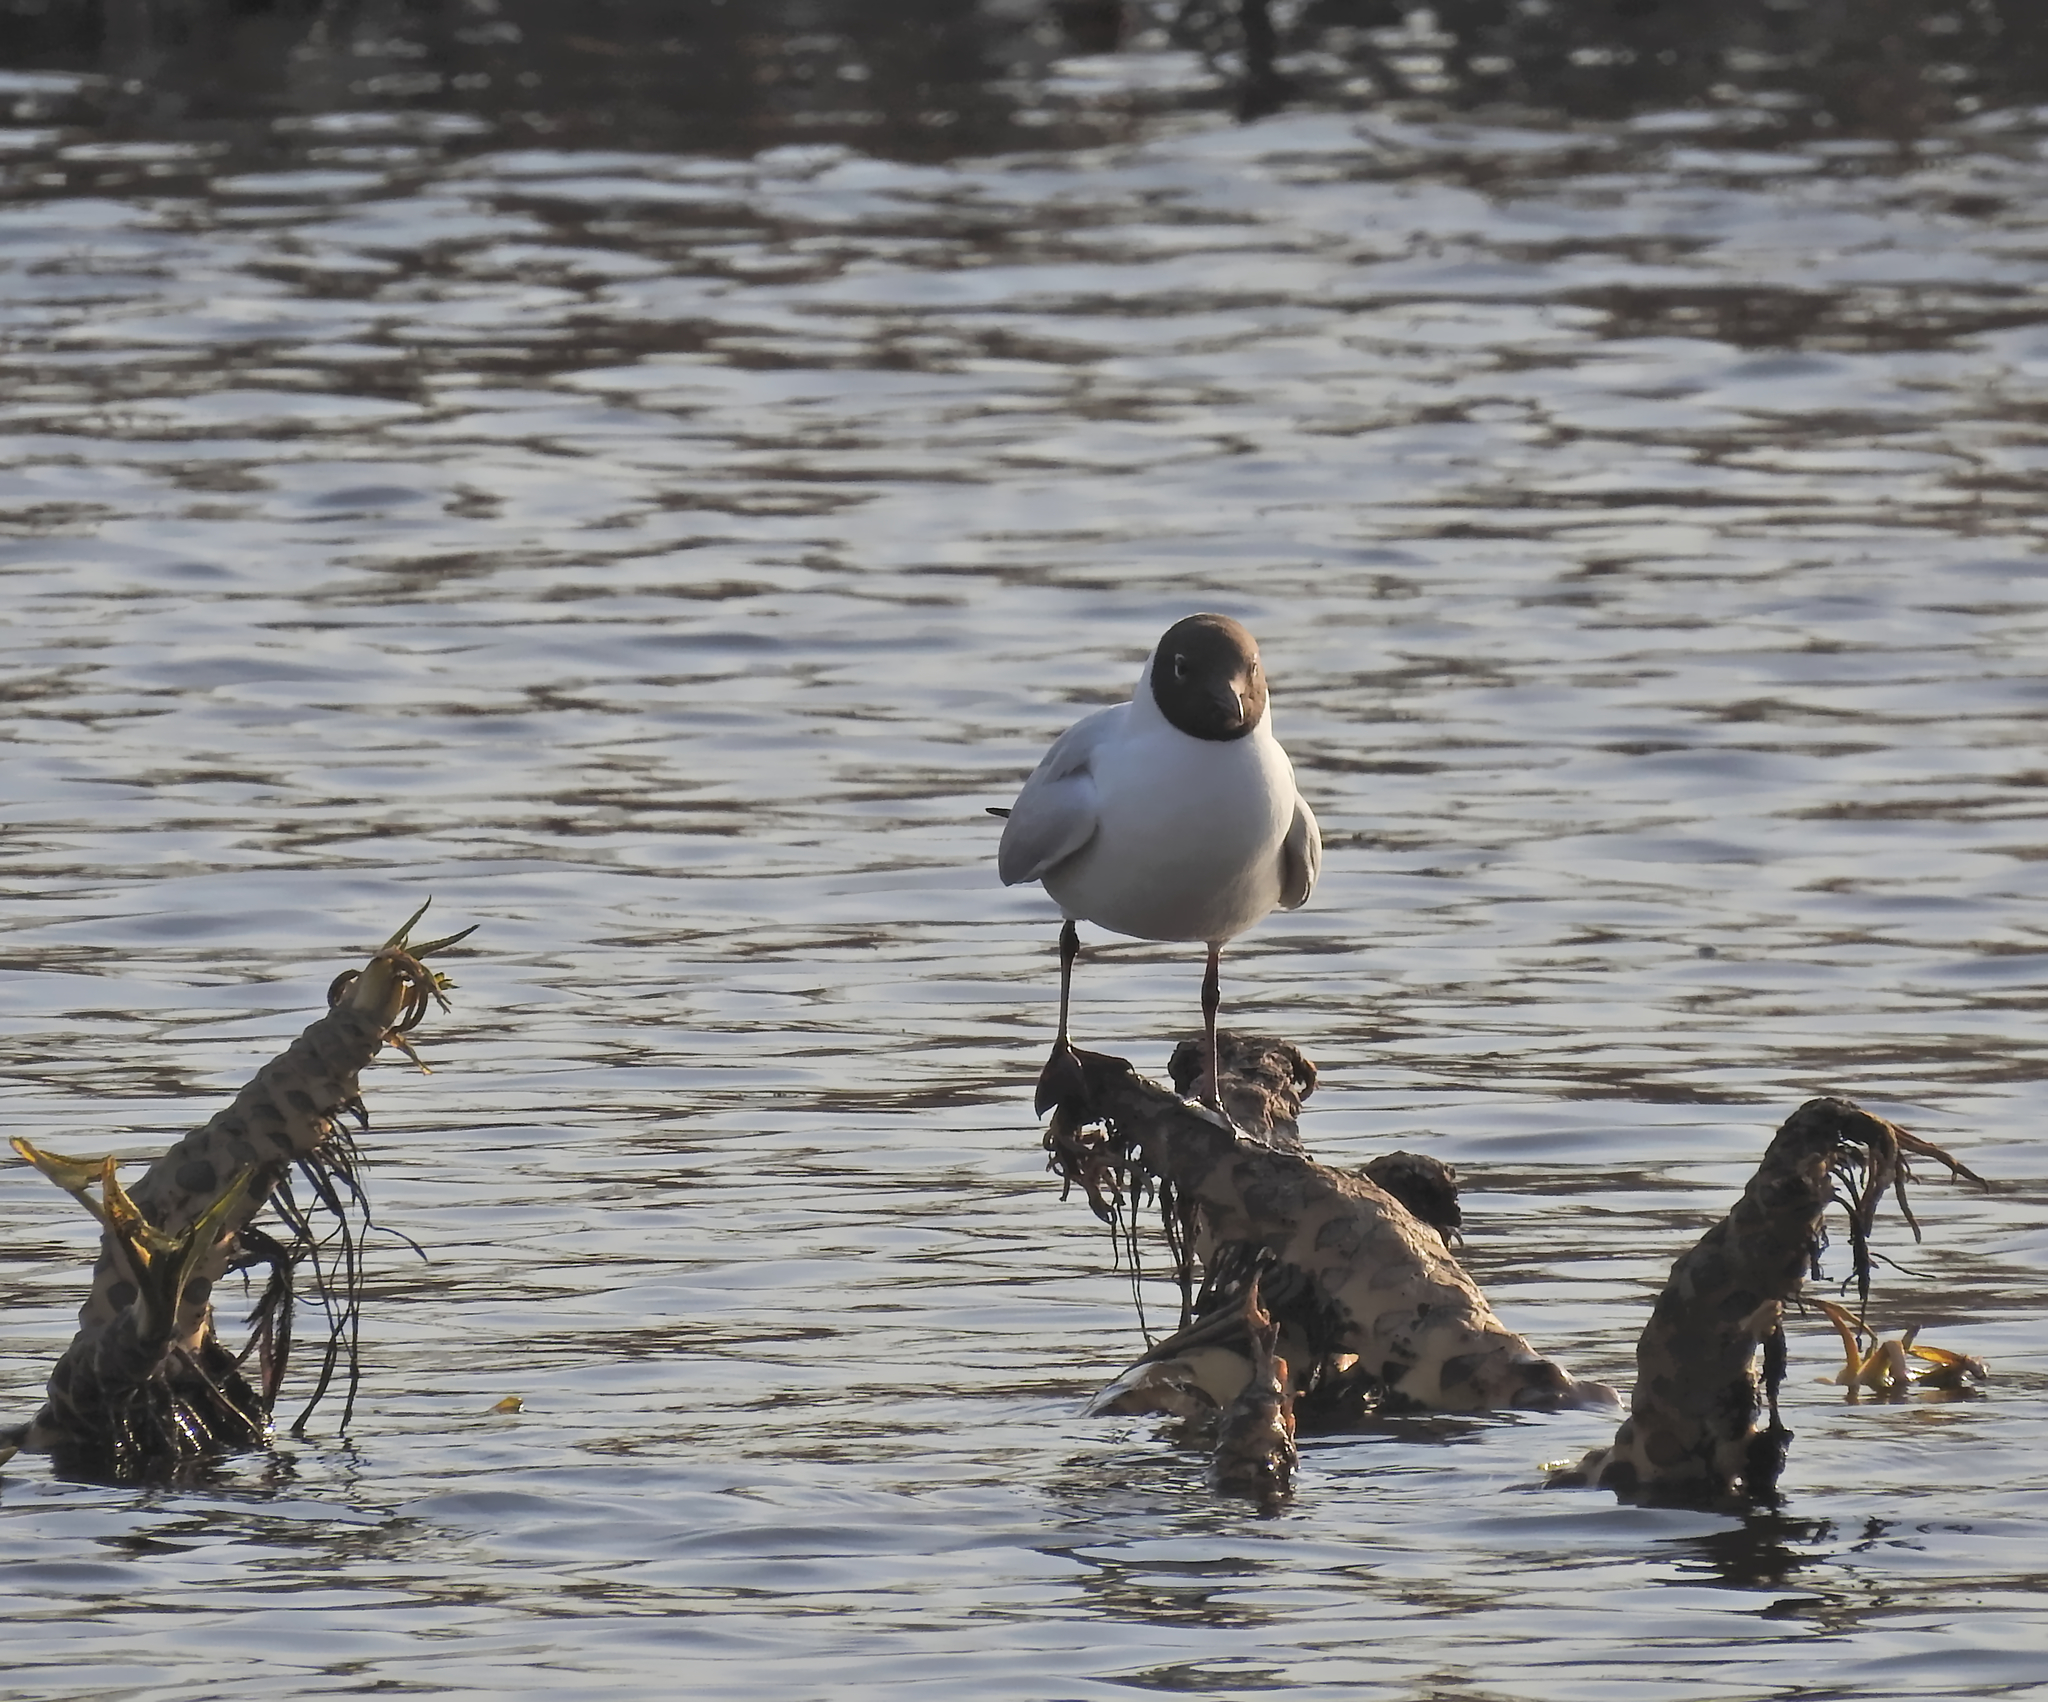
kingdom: Animalia
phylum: Chordata
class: Aves
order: Charadriiformes
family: Laridae
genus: Chroicocephalus
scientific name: Chroicocephalus ridibundus
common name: Black-headed gull
